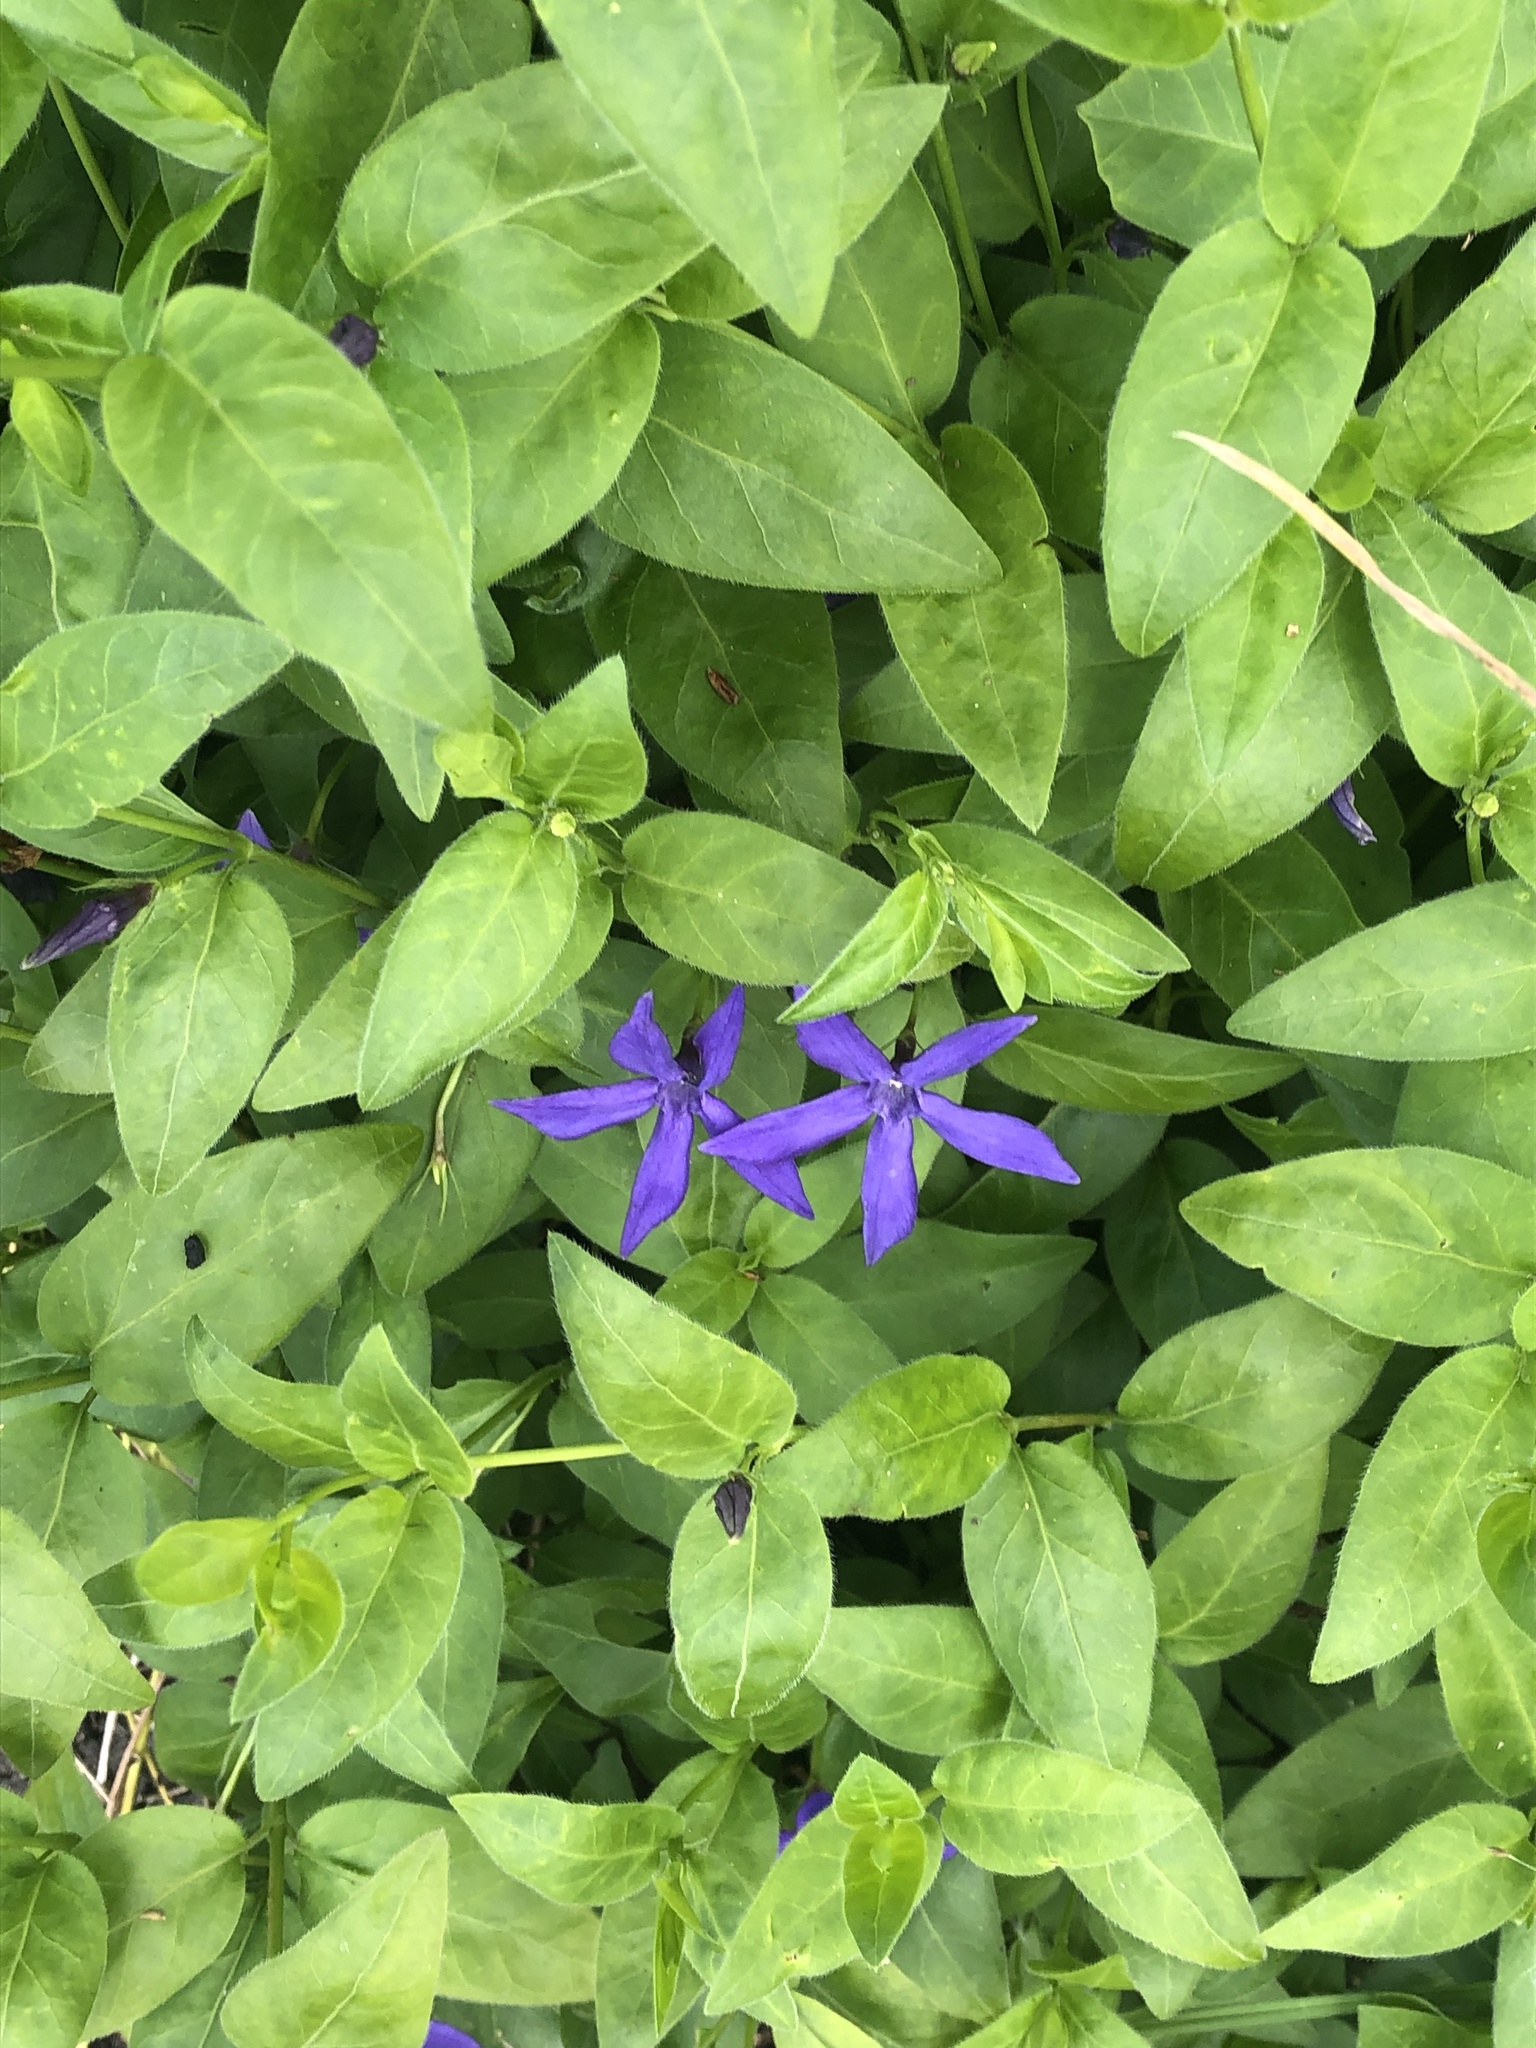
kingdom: Plantae
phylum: Tracheophyta
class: Magnoliopsida
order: Gentianales
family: Apocynaceae
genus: Vinca
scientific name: Vinca major
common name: Greater periwinkle
